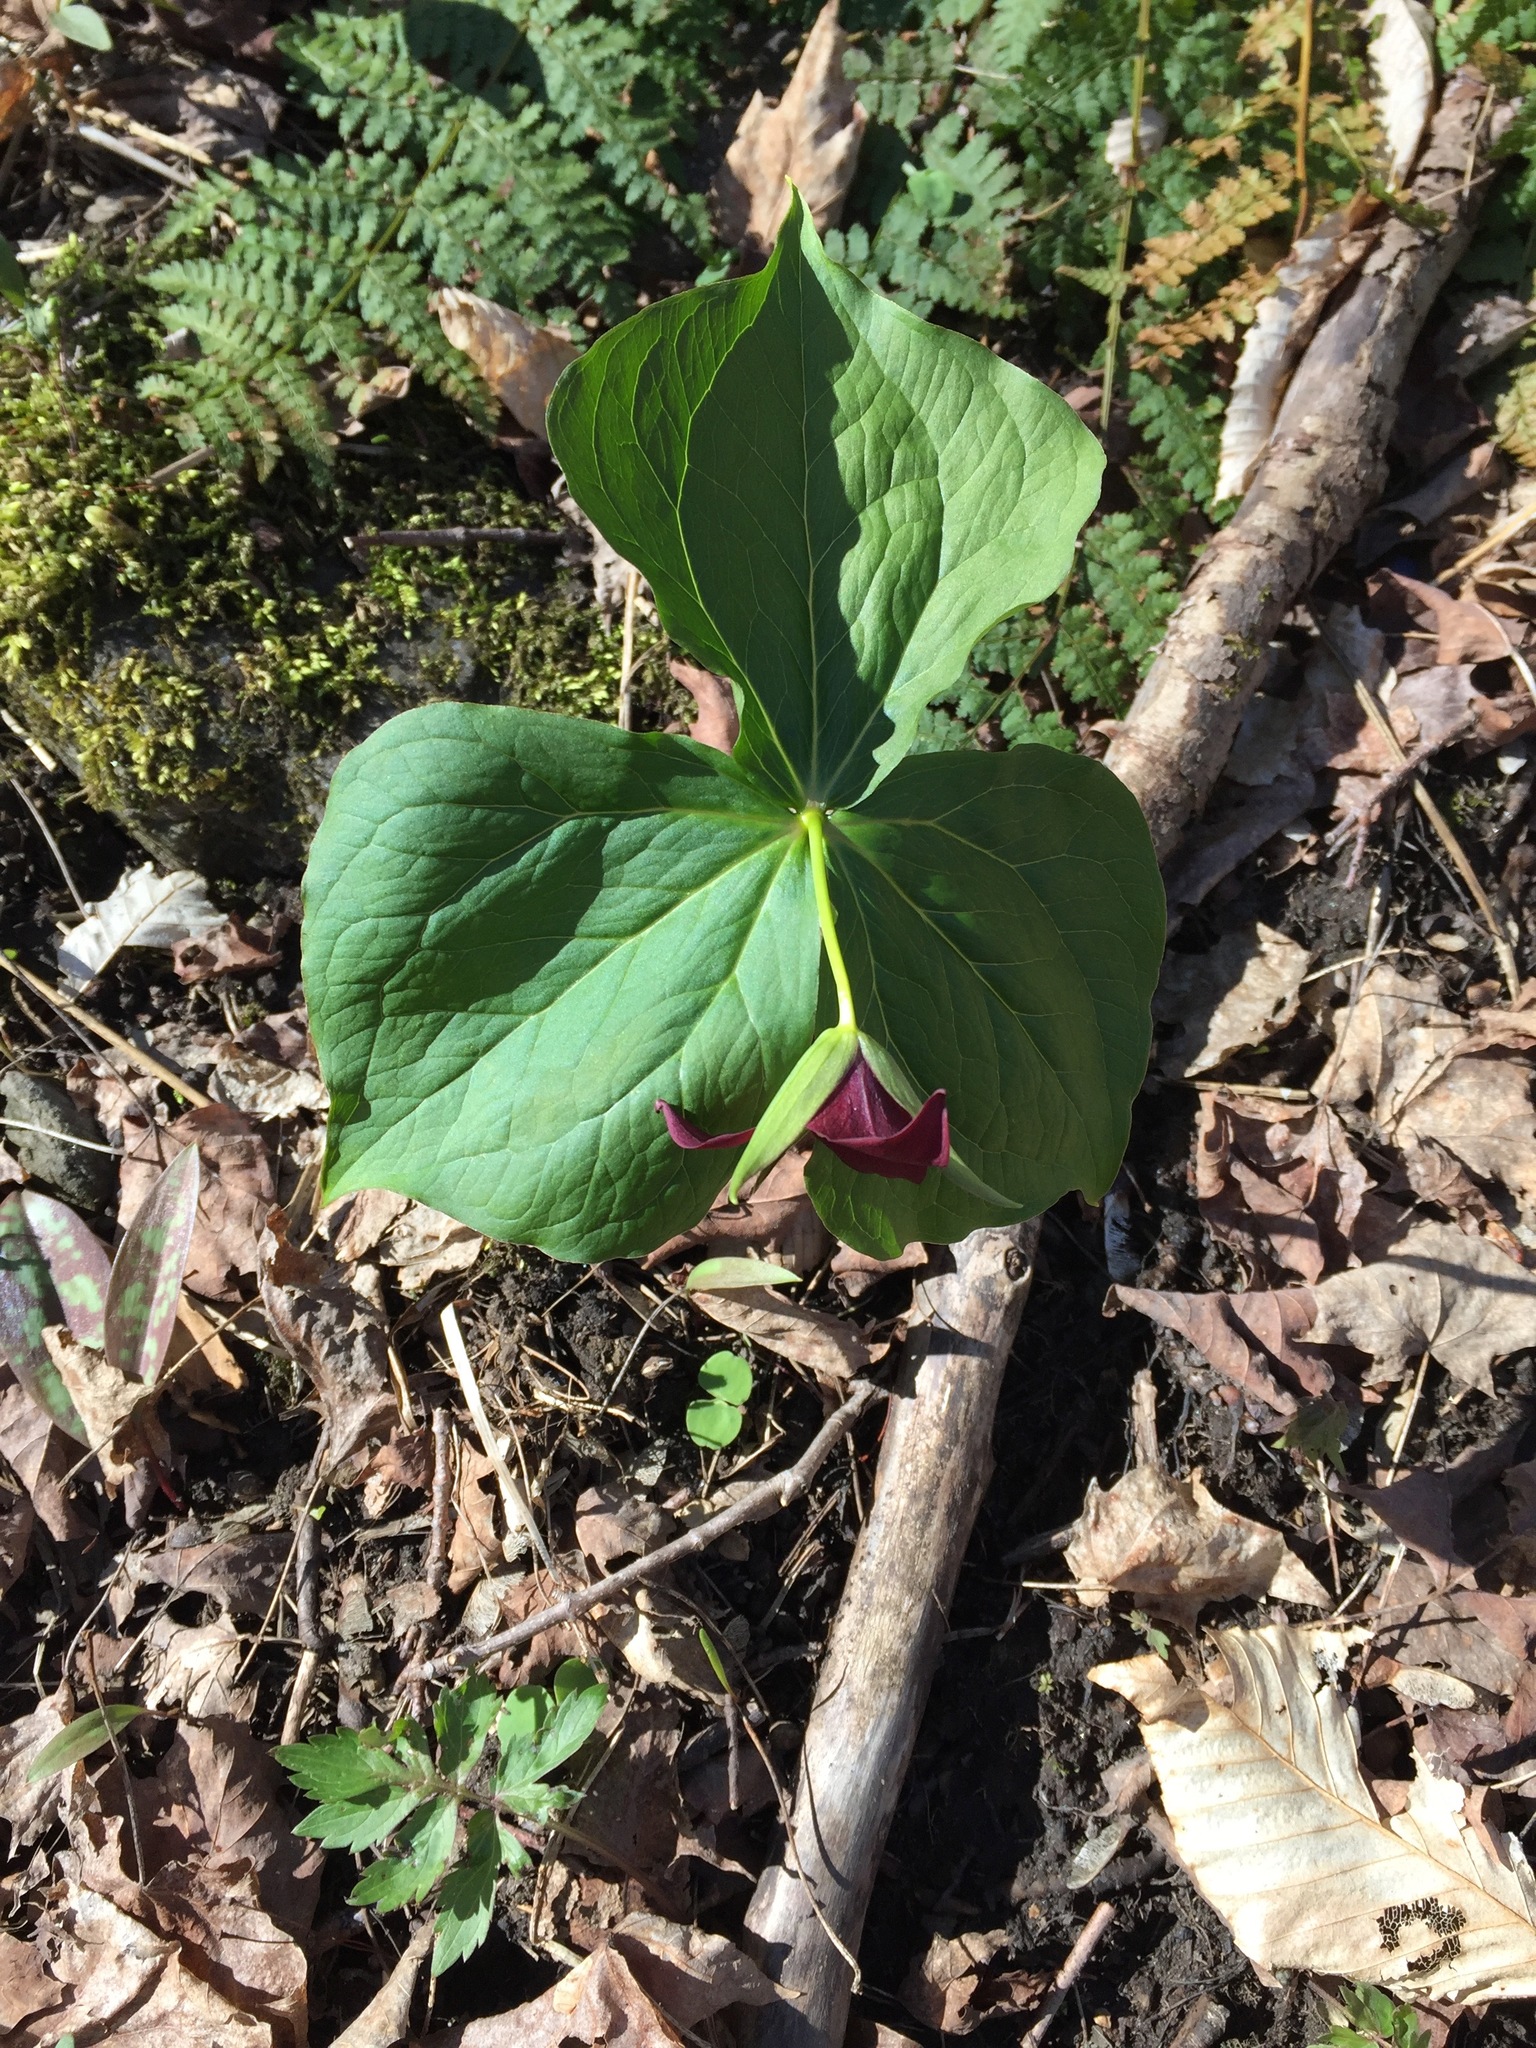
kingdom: Plantae
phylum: Tracheophyta
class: Liliopsida
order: Liliales
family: Melanthiaceae
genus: Trillium
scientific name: Trillium erectum
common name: Purple trillium
